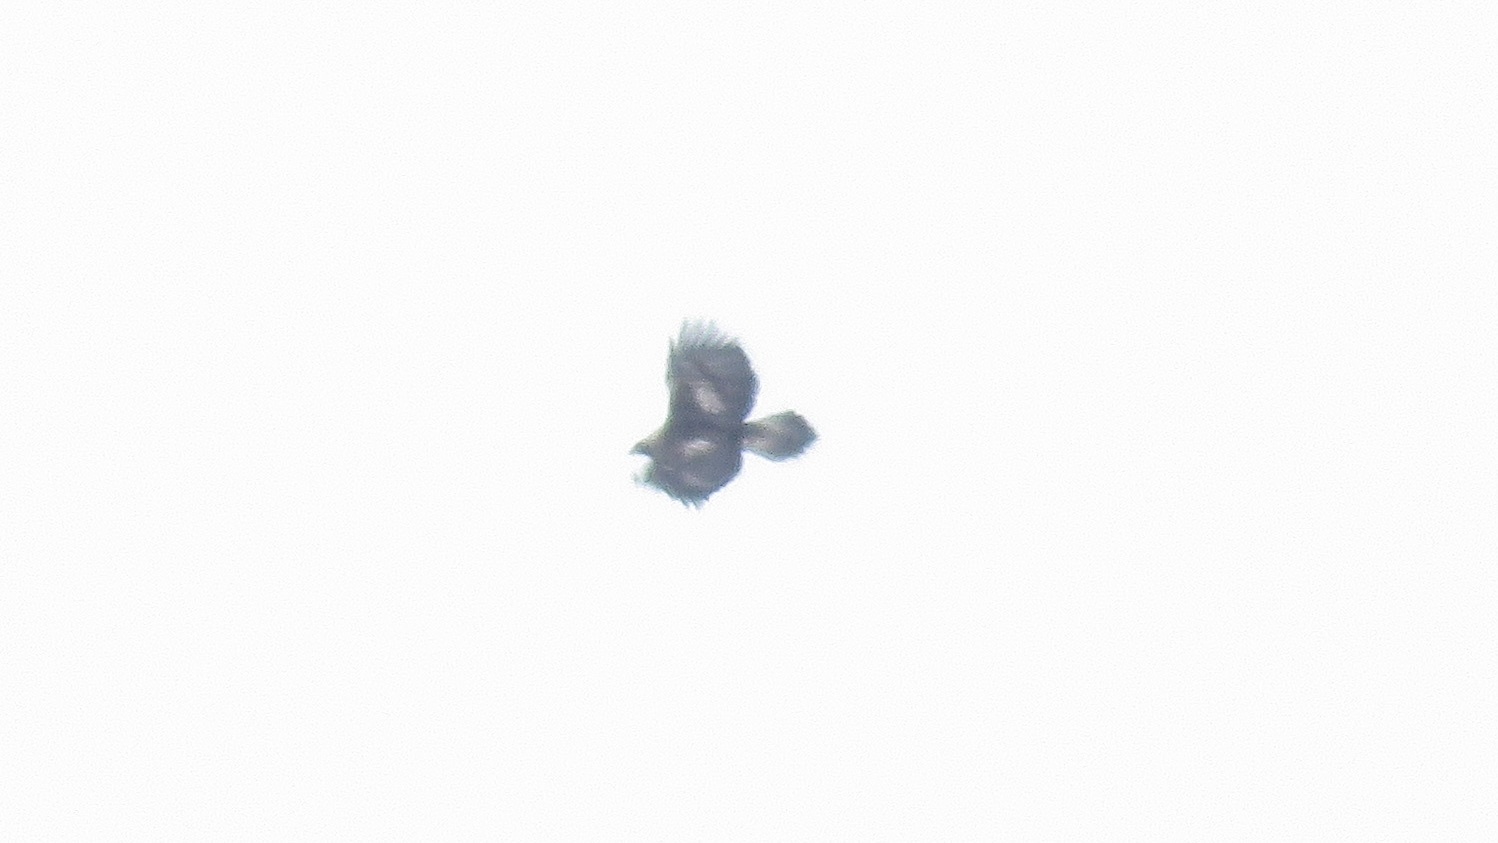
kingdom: Animalia
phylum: Chordata
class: Aves
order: Accipitriformes
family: Accipitridae
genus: Aquila
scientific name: Aquila chrysaetos
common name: Golden eagle
